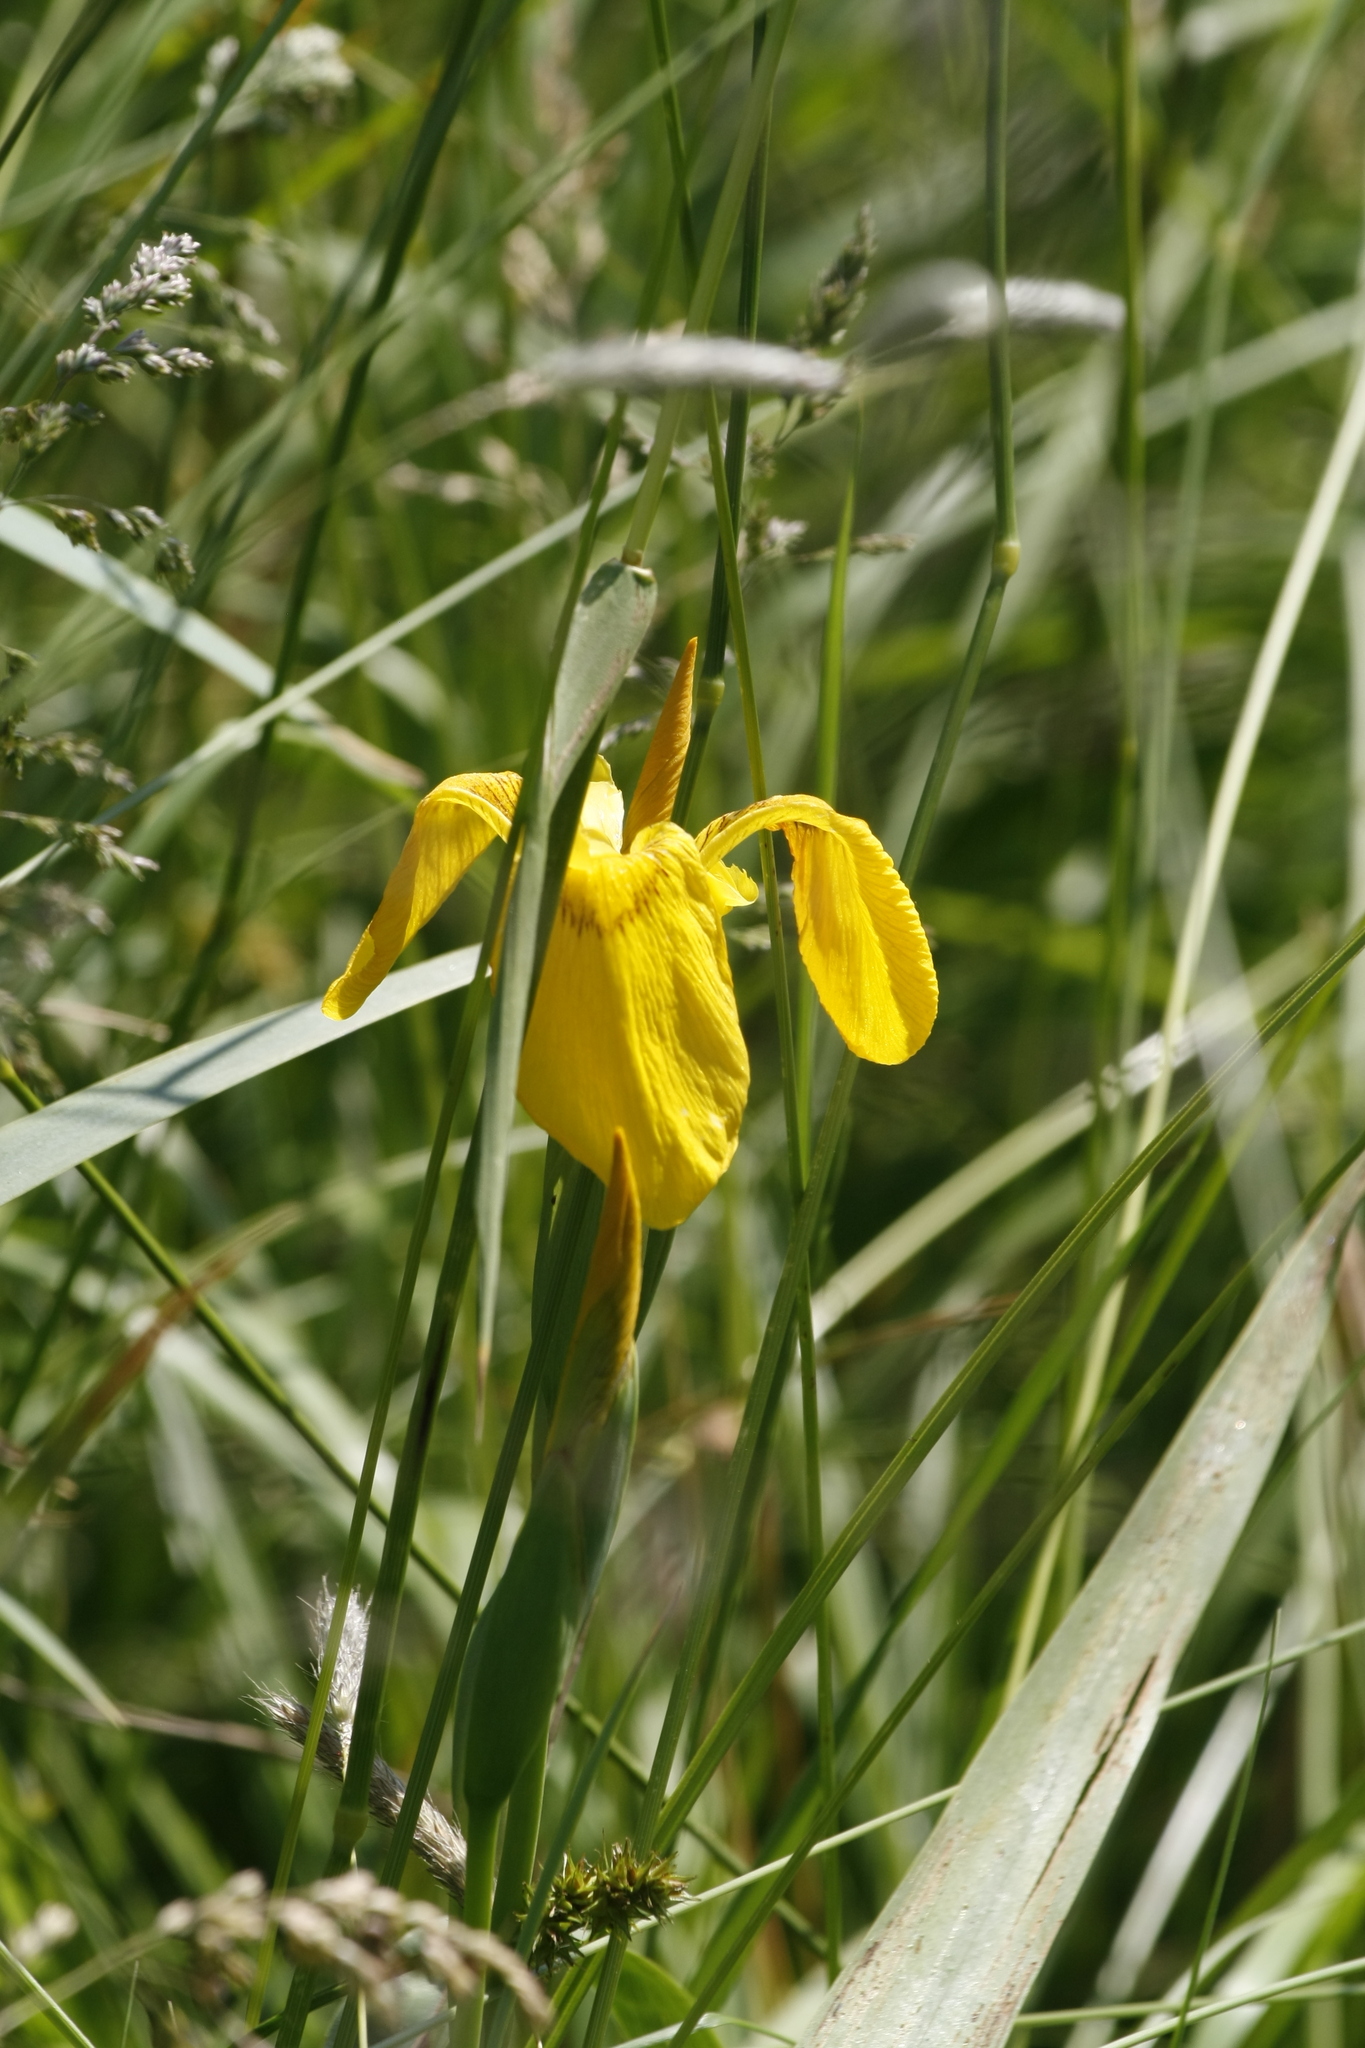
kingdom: Plantae
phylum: Tracheophyta
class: Liliopsida
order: Asparagales
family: Iridaceae
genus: Iris
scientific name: Iris pseudacorus
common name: Yellow flag
